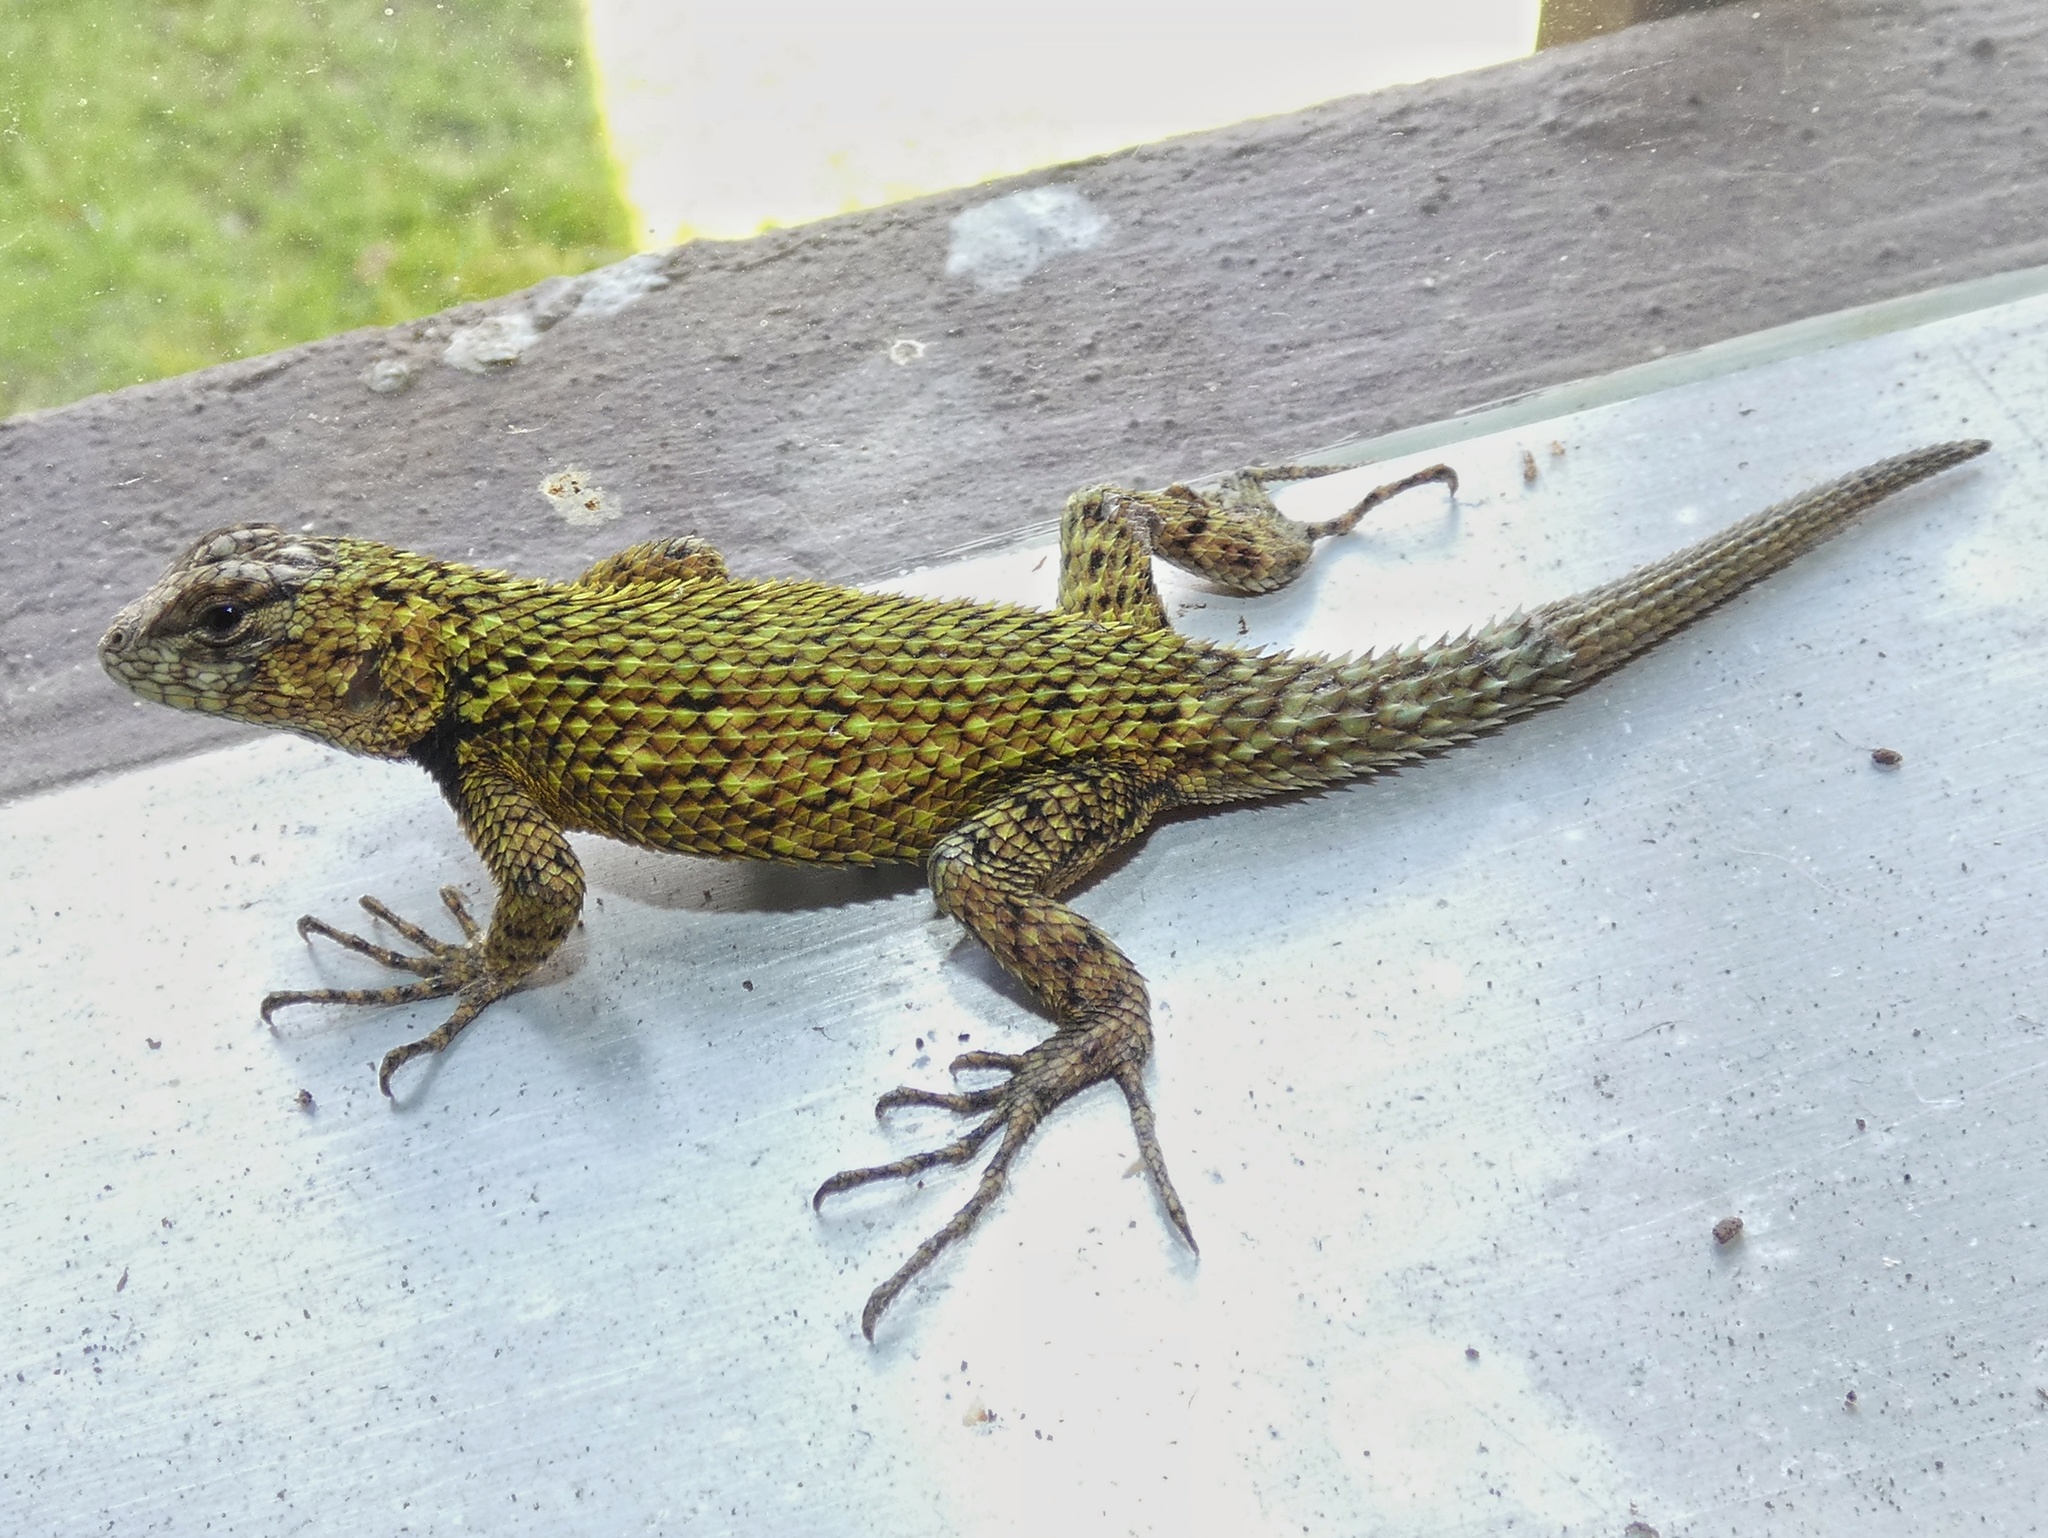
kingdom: Animalia
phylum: Chordata
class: Squamata
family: Phrynosomatidae
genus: Sceloporus
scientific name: Sceloporus malachiticus
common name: Green spiny lizard
